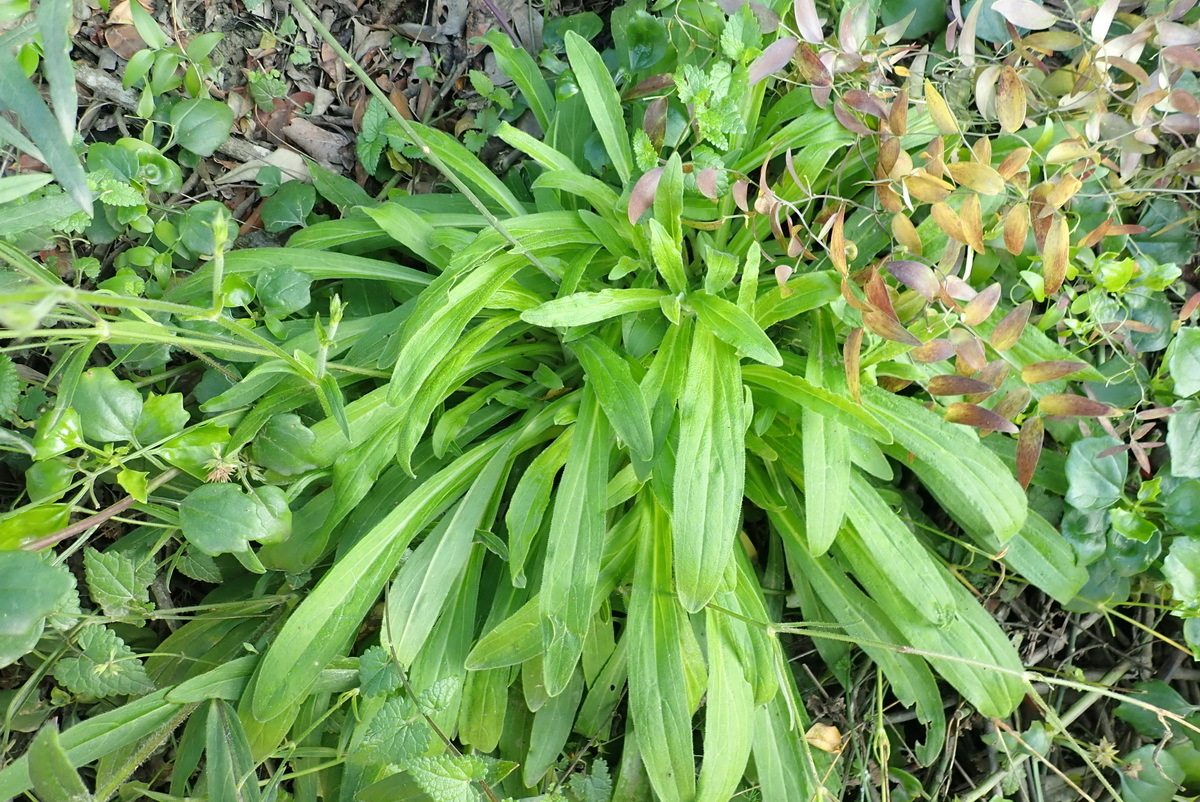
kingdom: Plantae
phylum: Tracheophyta
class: Magnoliopsida
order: Caryophyllales
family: Caryophyllaceae
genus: Silene
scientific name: Silene undulata
